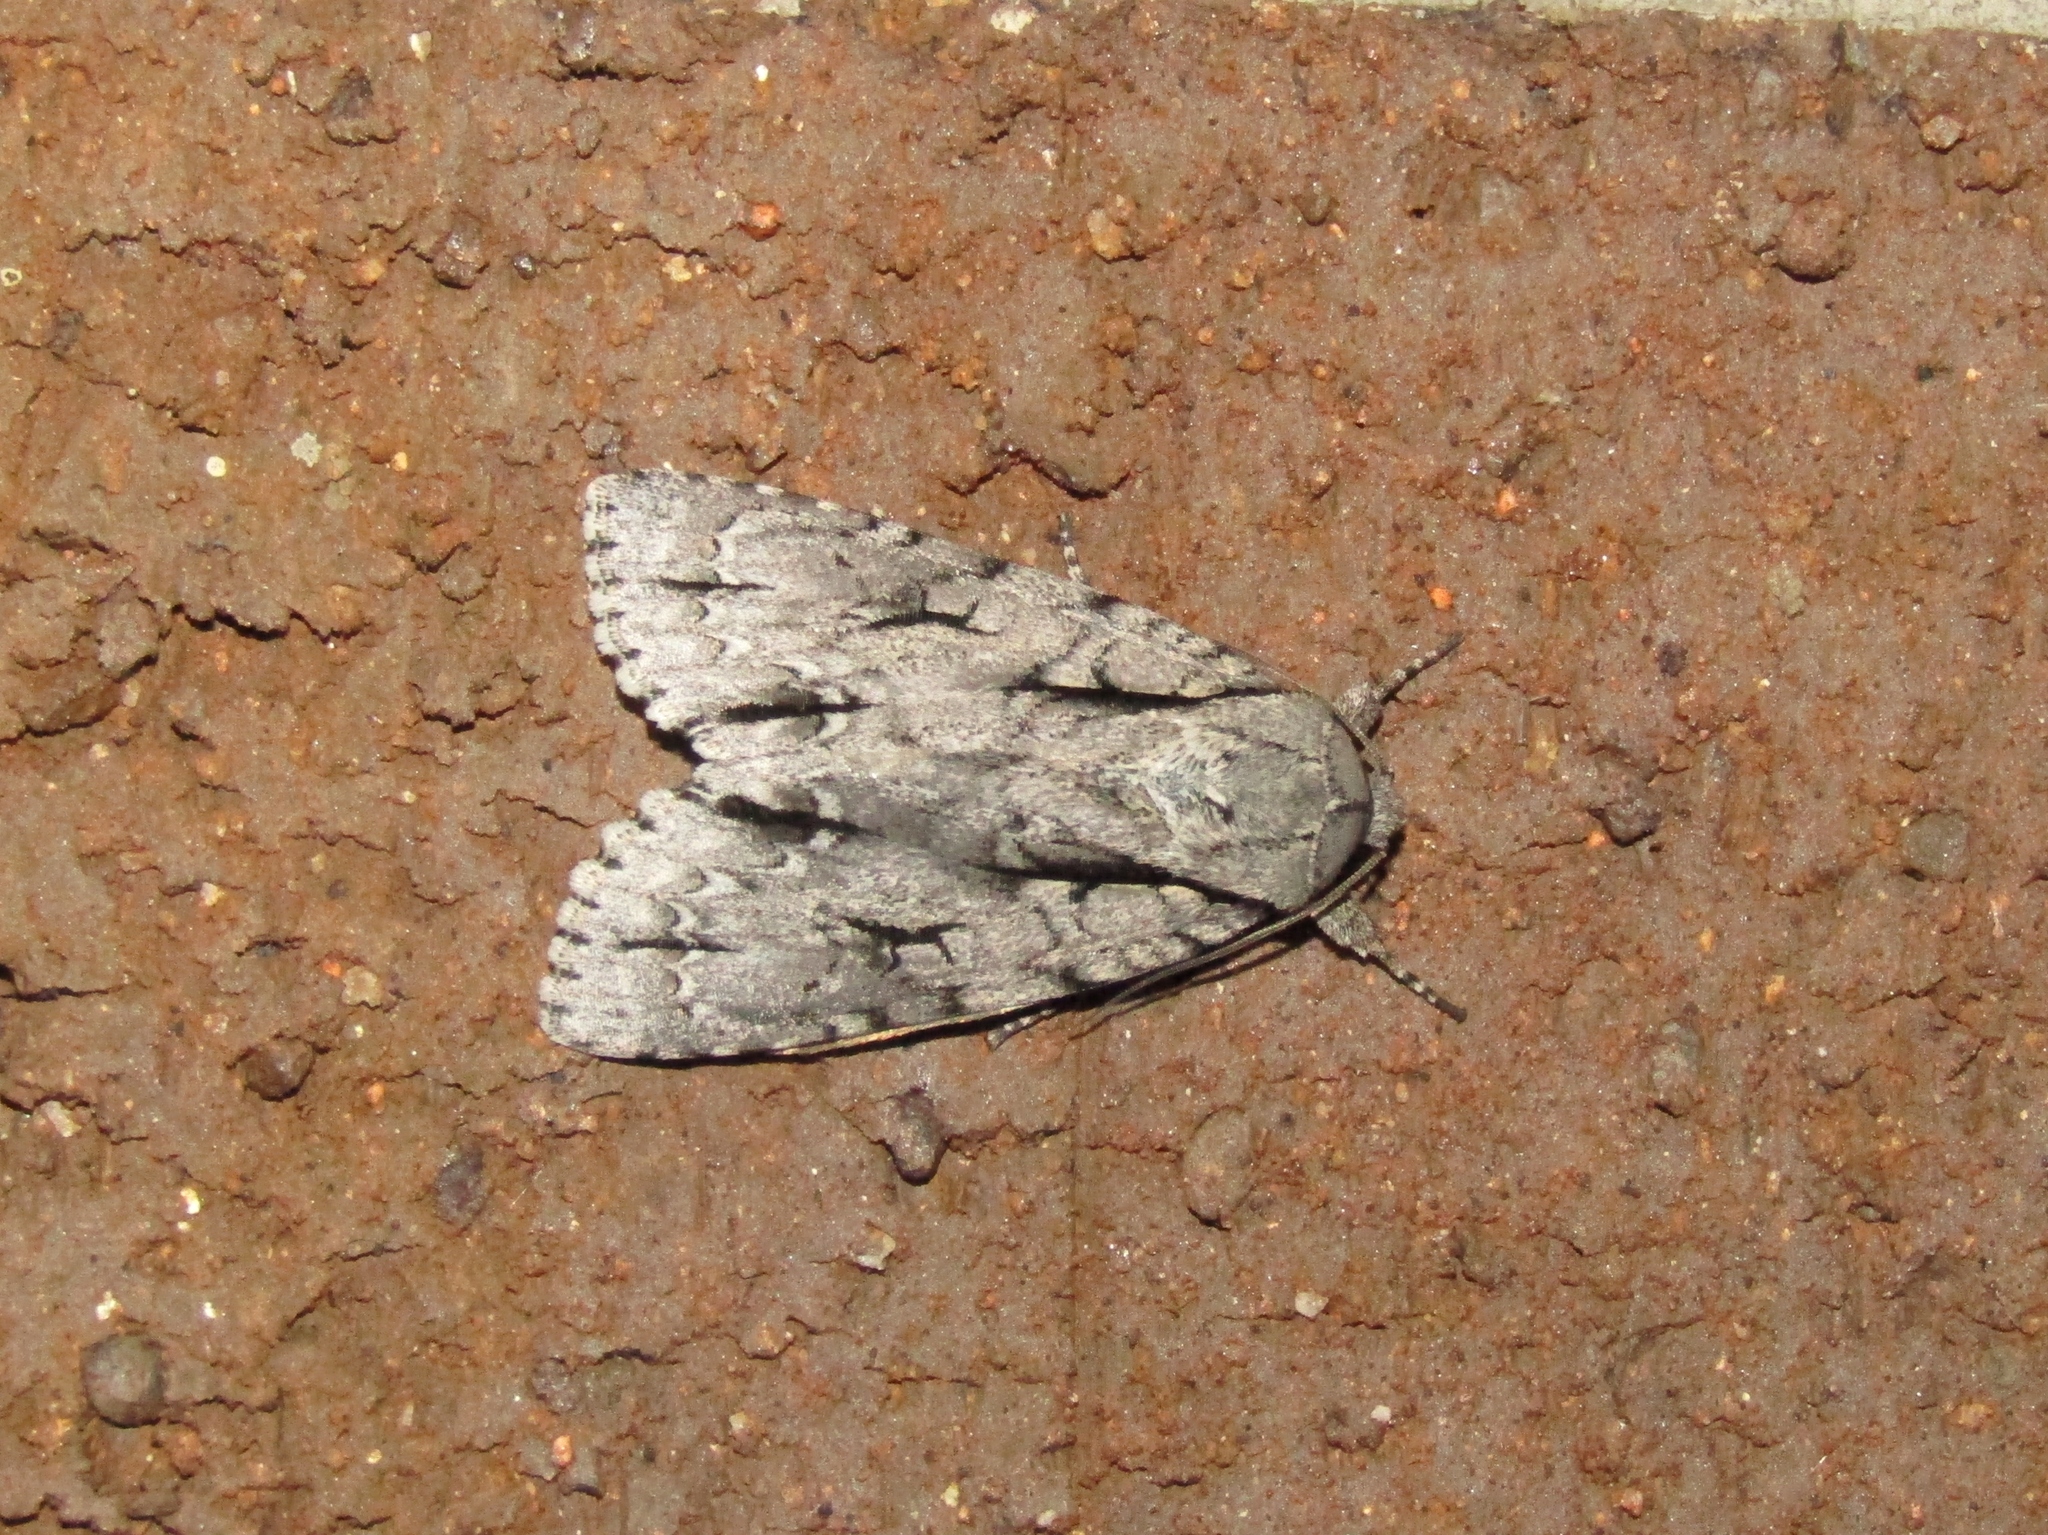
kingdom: Animalia
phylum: Arthropoda
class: Insecta
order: Lepidoptera
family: Noctuidae
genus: Acronicta
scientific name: Acronicta lobeliae
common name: Greater oak dagger
